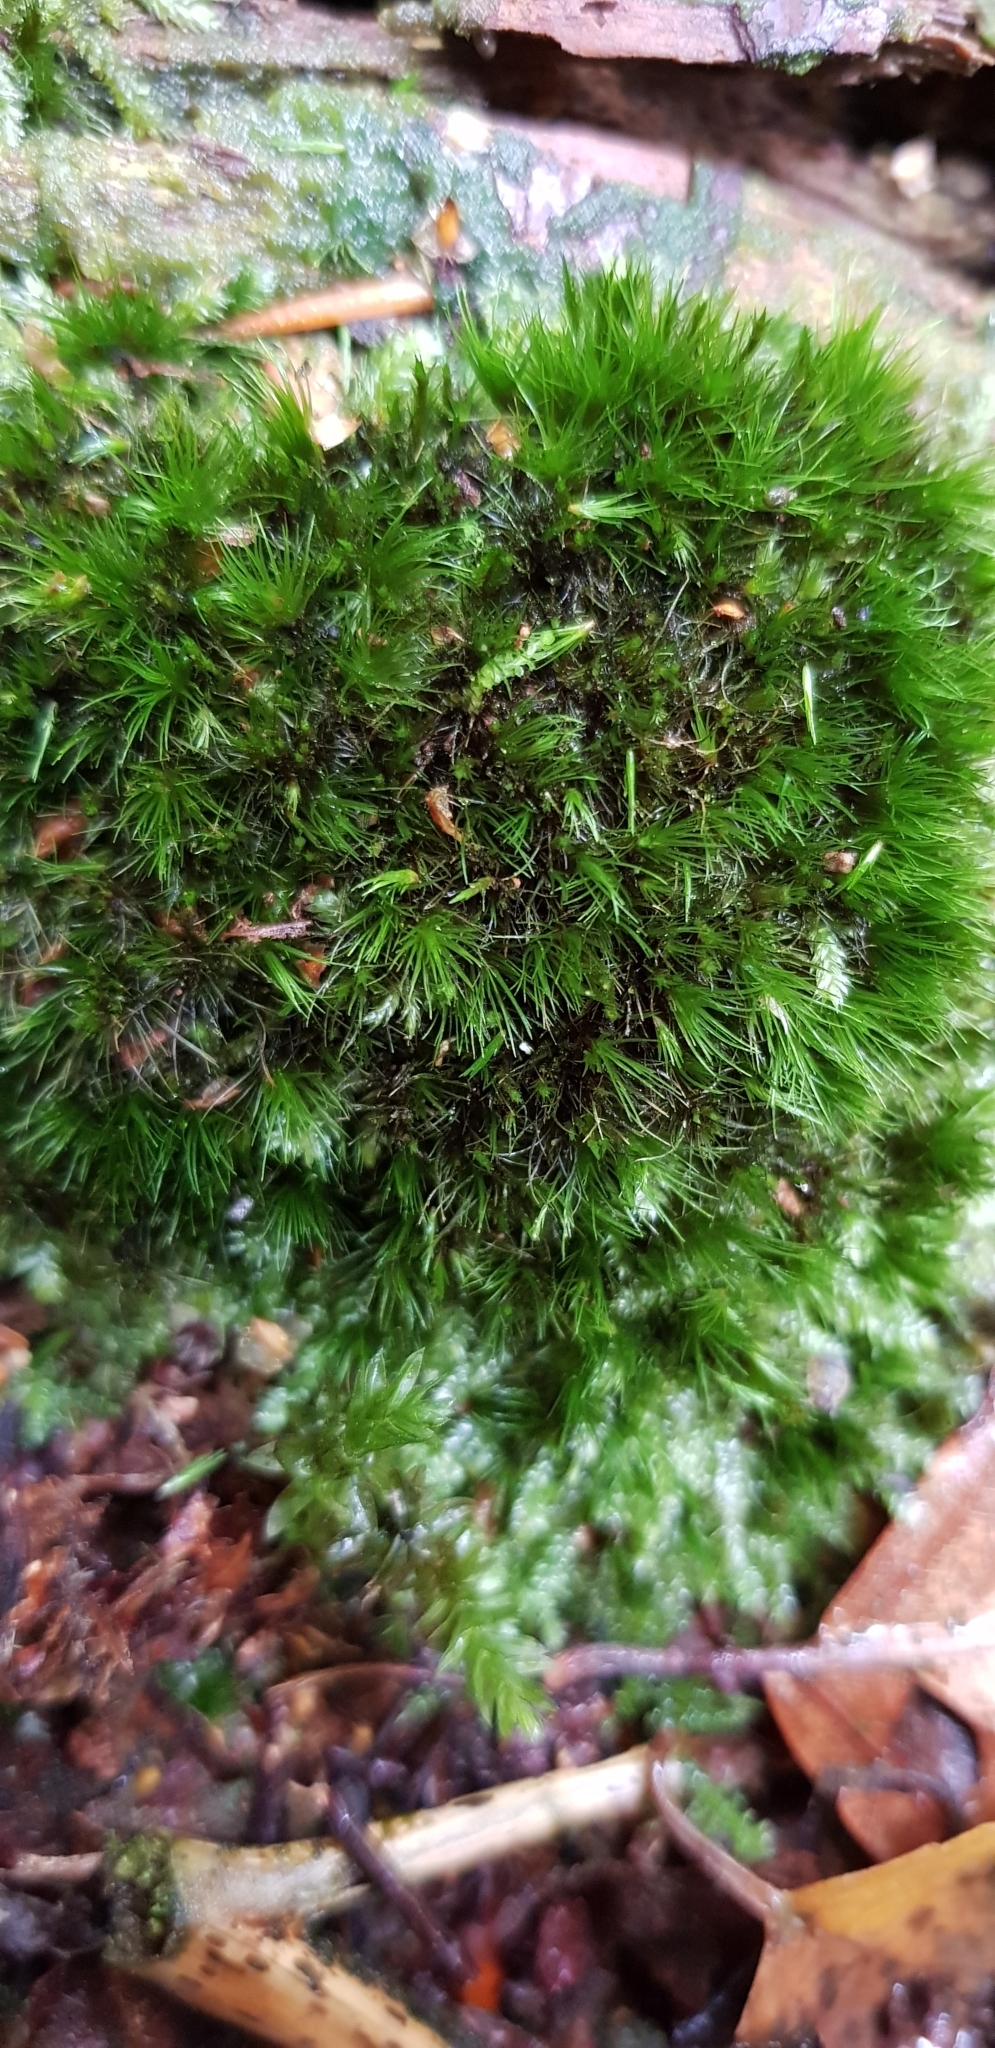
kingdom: Plantae
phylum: Bryophyta
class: Bryopsida
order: Dicranales
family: Leucobryaceae
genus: Campylopus
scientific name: Campylopus flexuosus
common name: Rusty swan-neck moss
